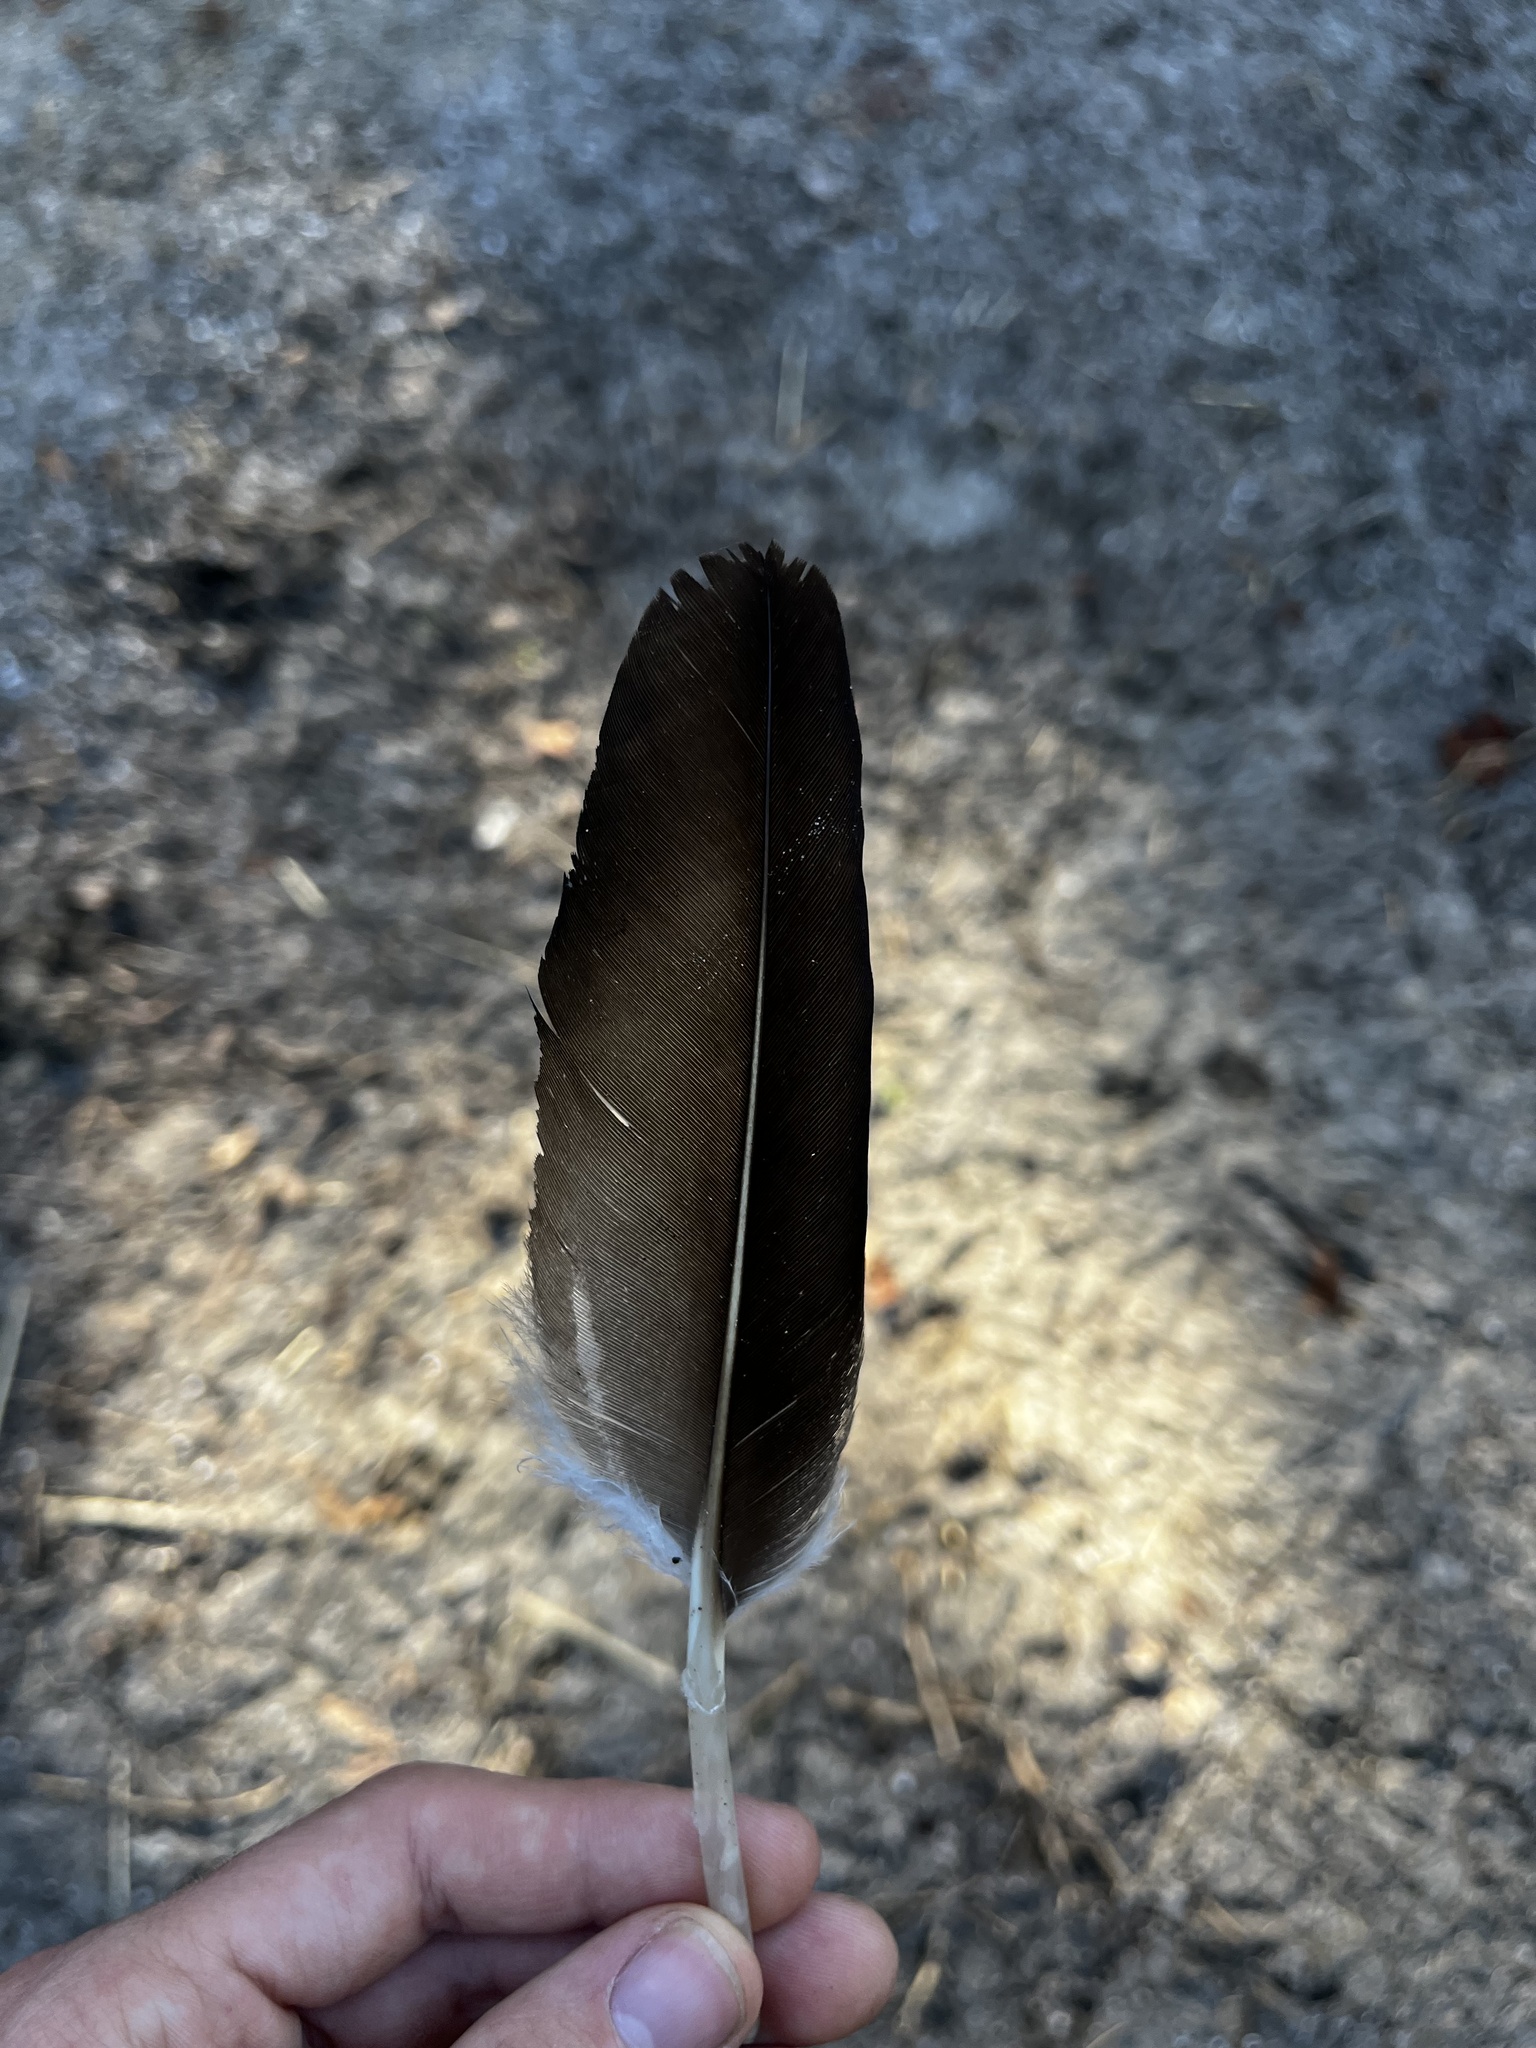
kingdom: Animalia
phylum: Chordata
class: Aves
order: Accipitriformes
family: Cathartidae
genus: Cathartes
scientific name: Cathartes aura
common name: Turkey vulture
